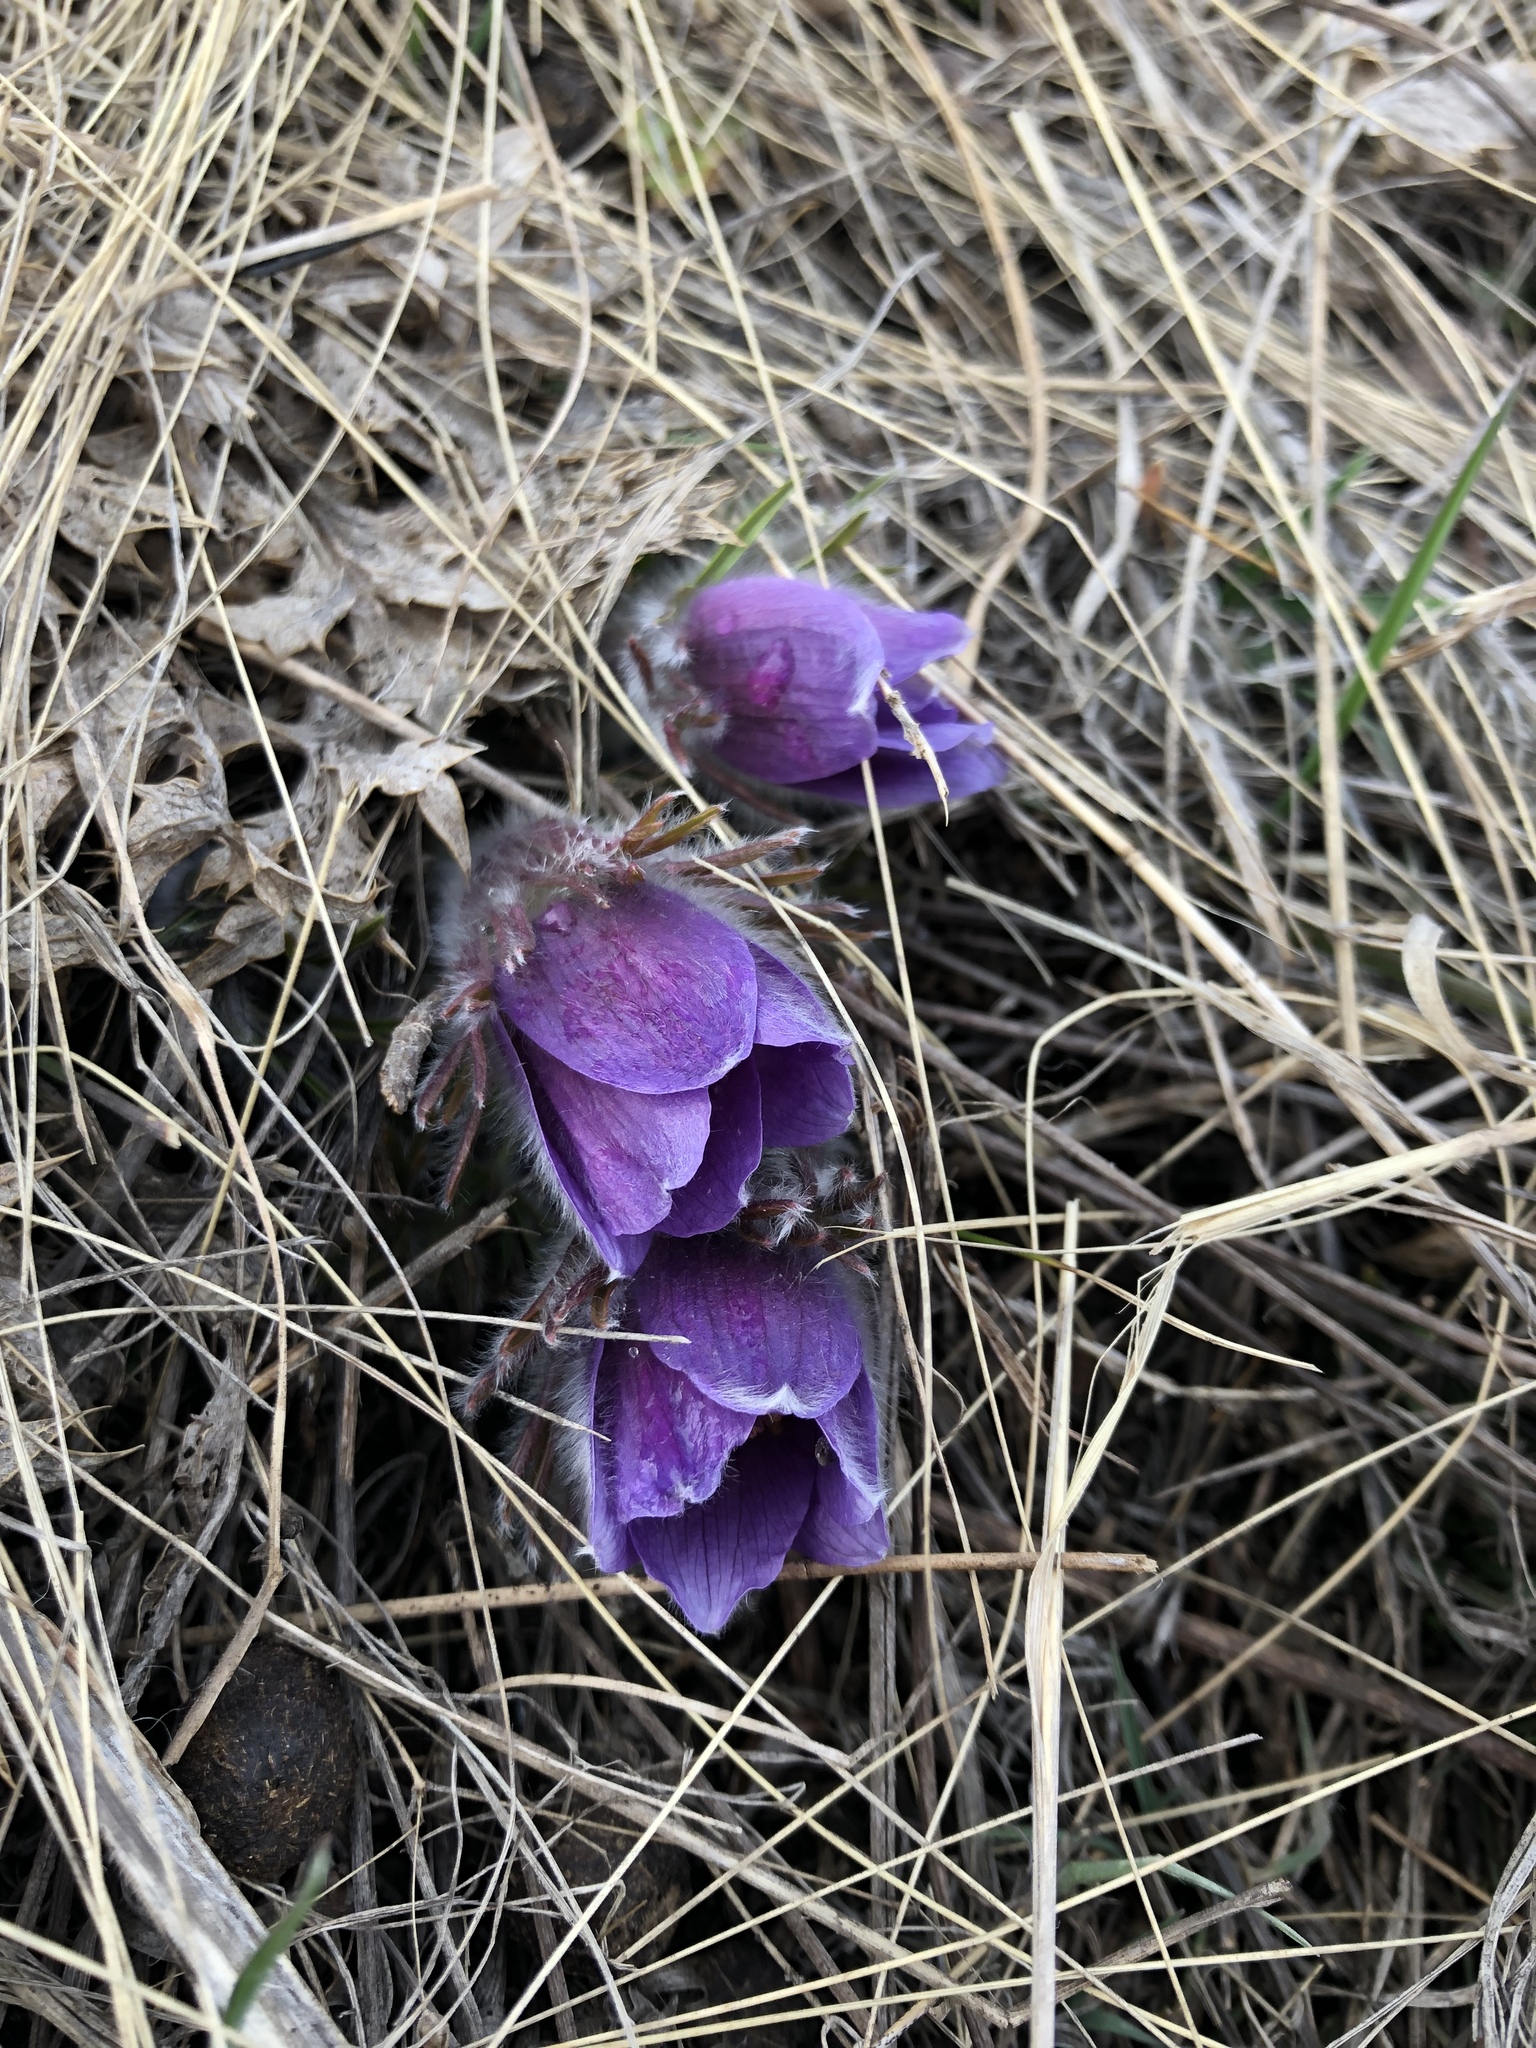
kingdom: Plantae
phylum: Tracheophyta
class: Magnoliopsida
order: Ranunculales
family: Ranunculaceae
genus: Pulsatilla
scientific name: Pulsatilla montana
